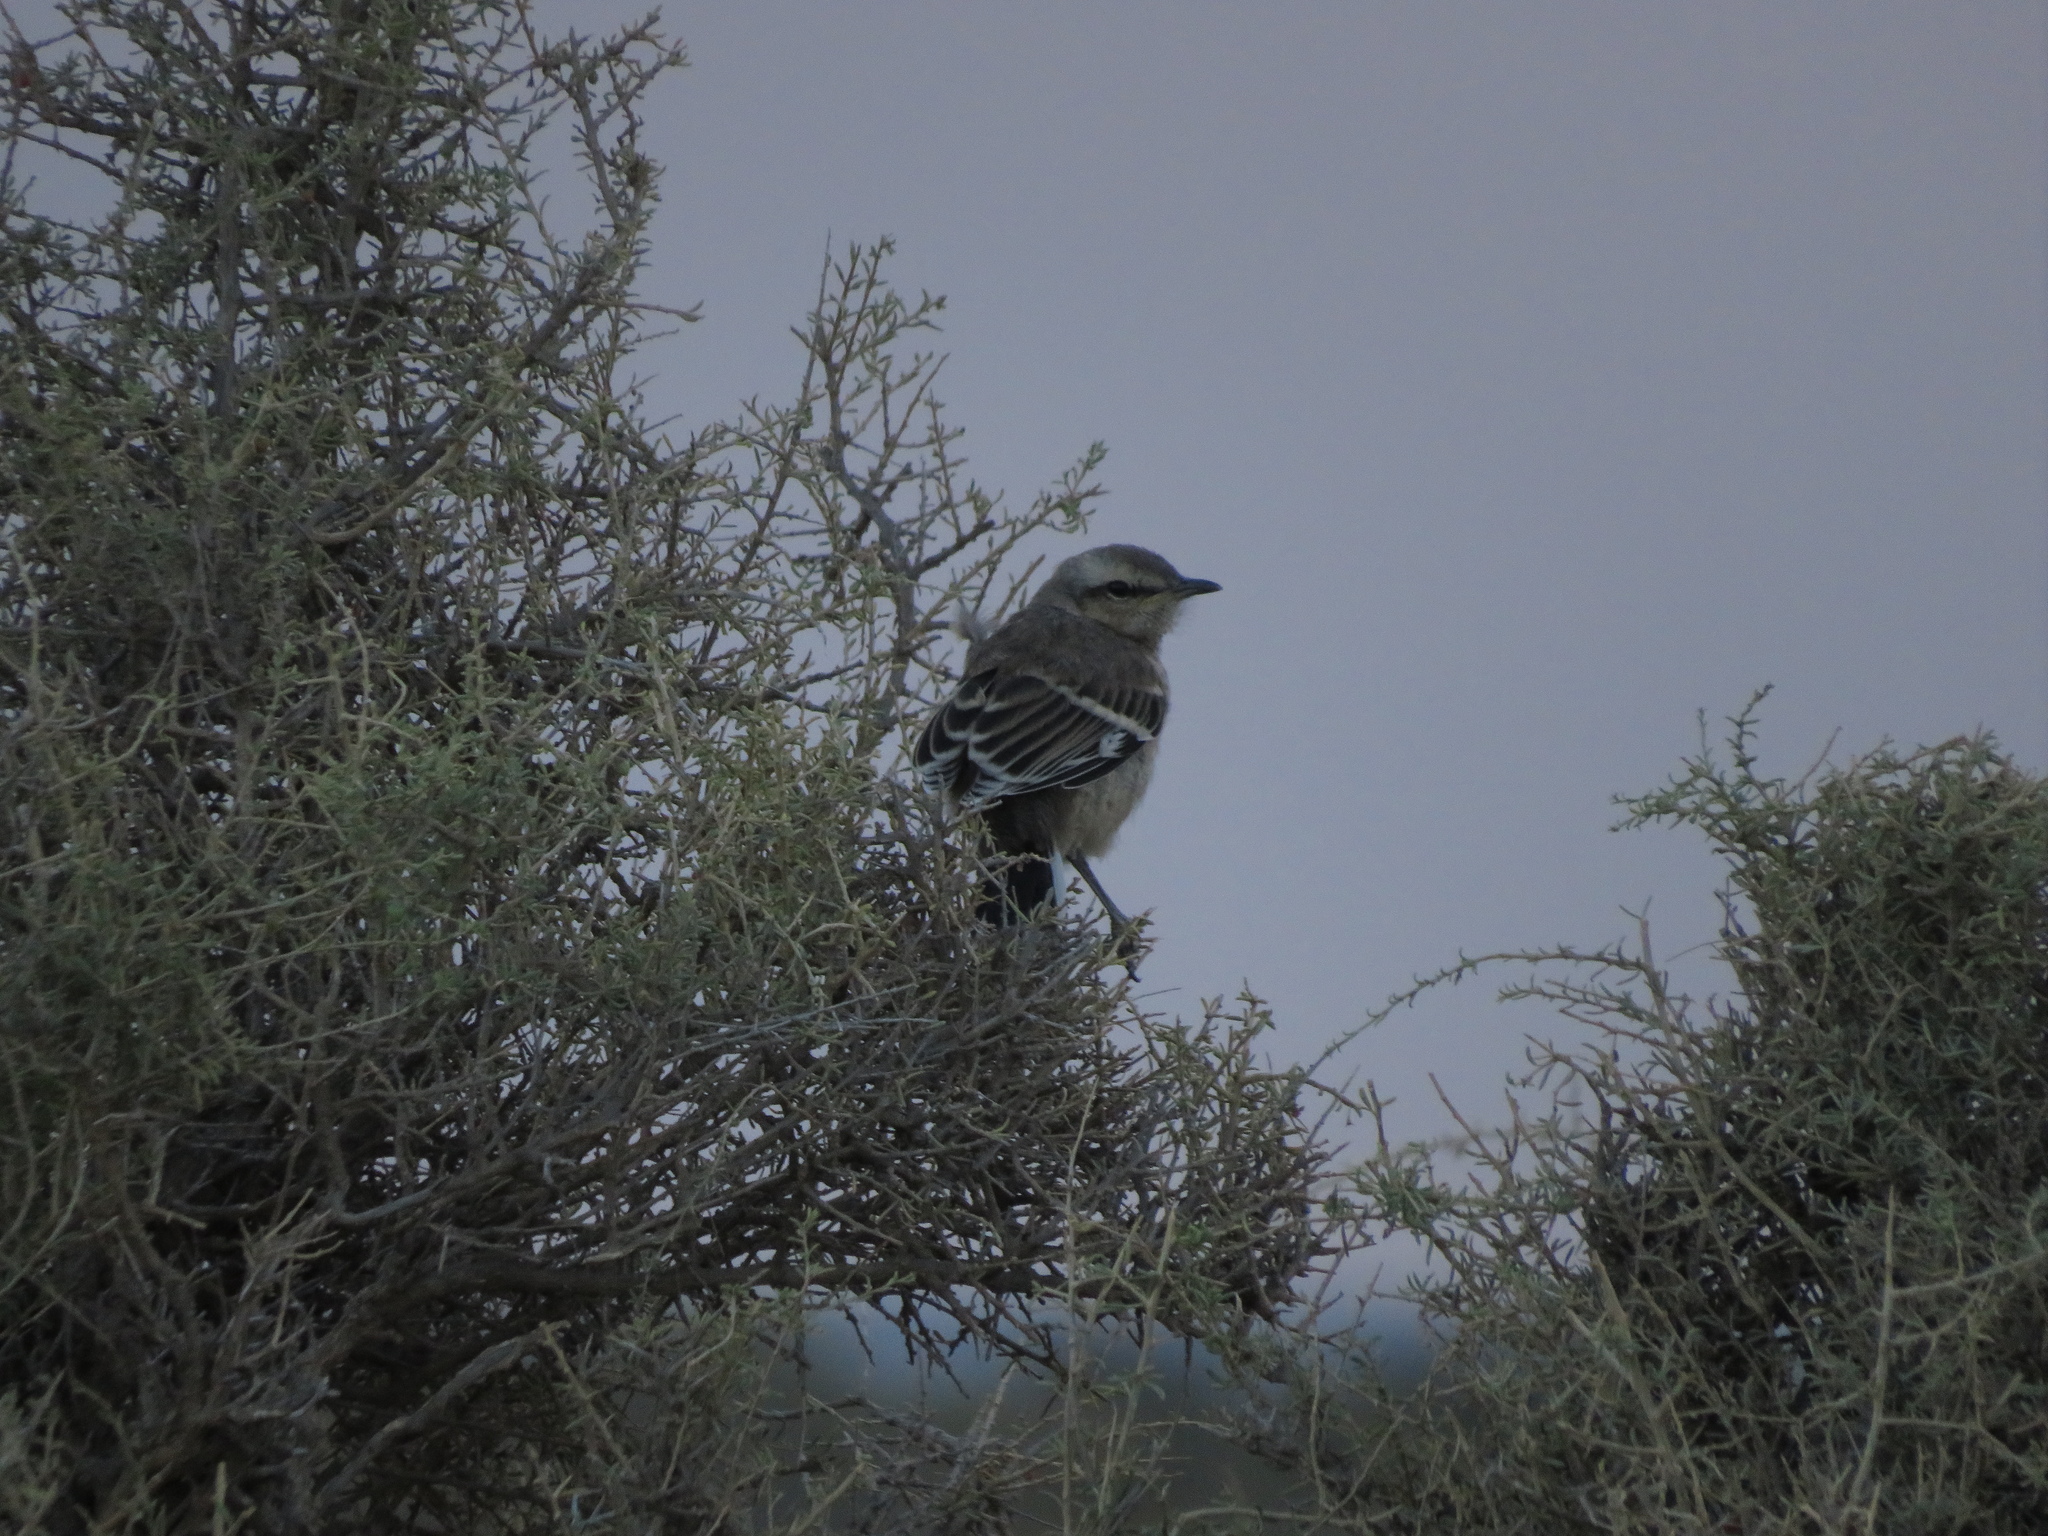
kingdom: Animalia
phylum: Chordata
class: Aves
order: Passeriformes
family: Mimidae
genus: Mimus
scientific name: Mimus patagonicus
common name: Patagonian mockingbird
